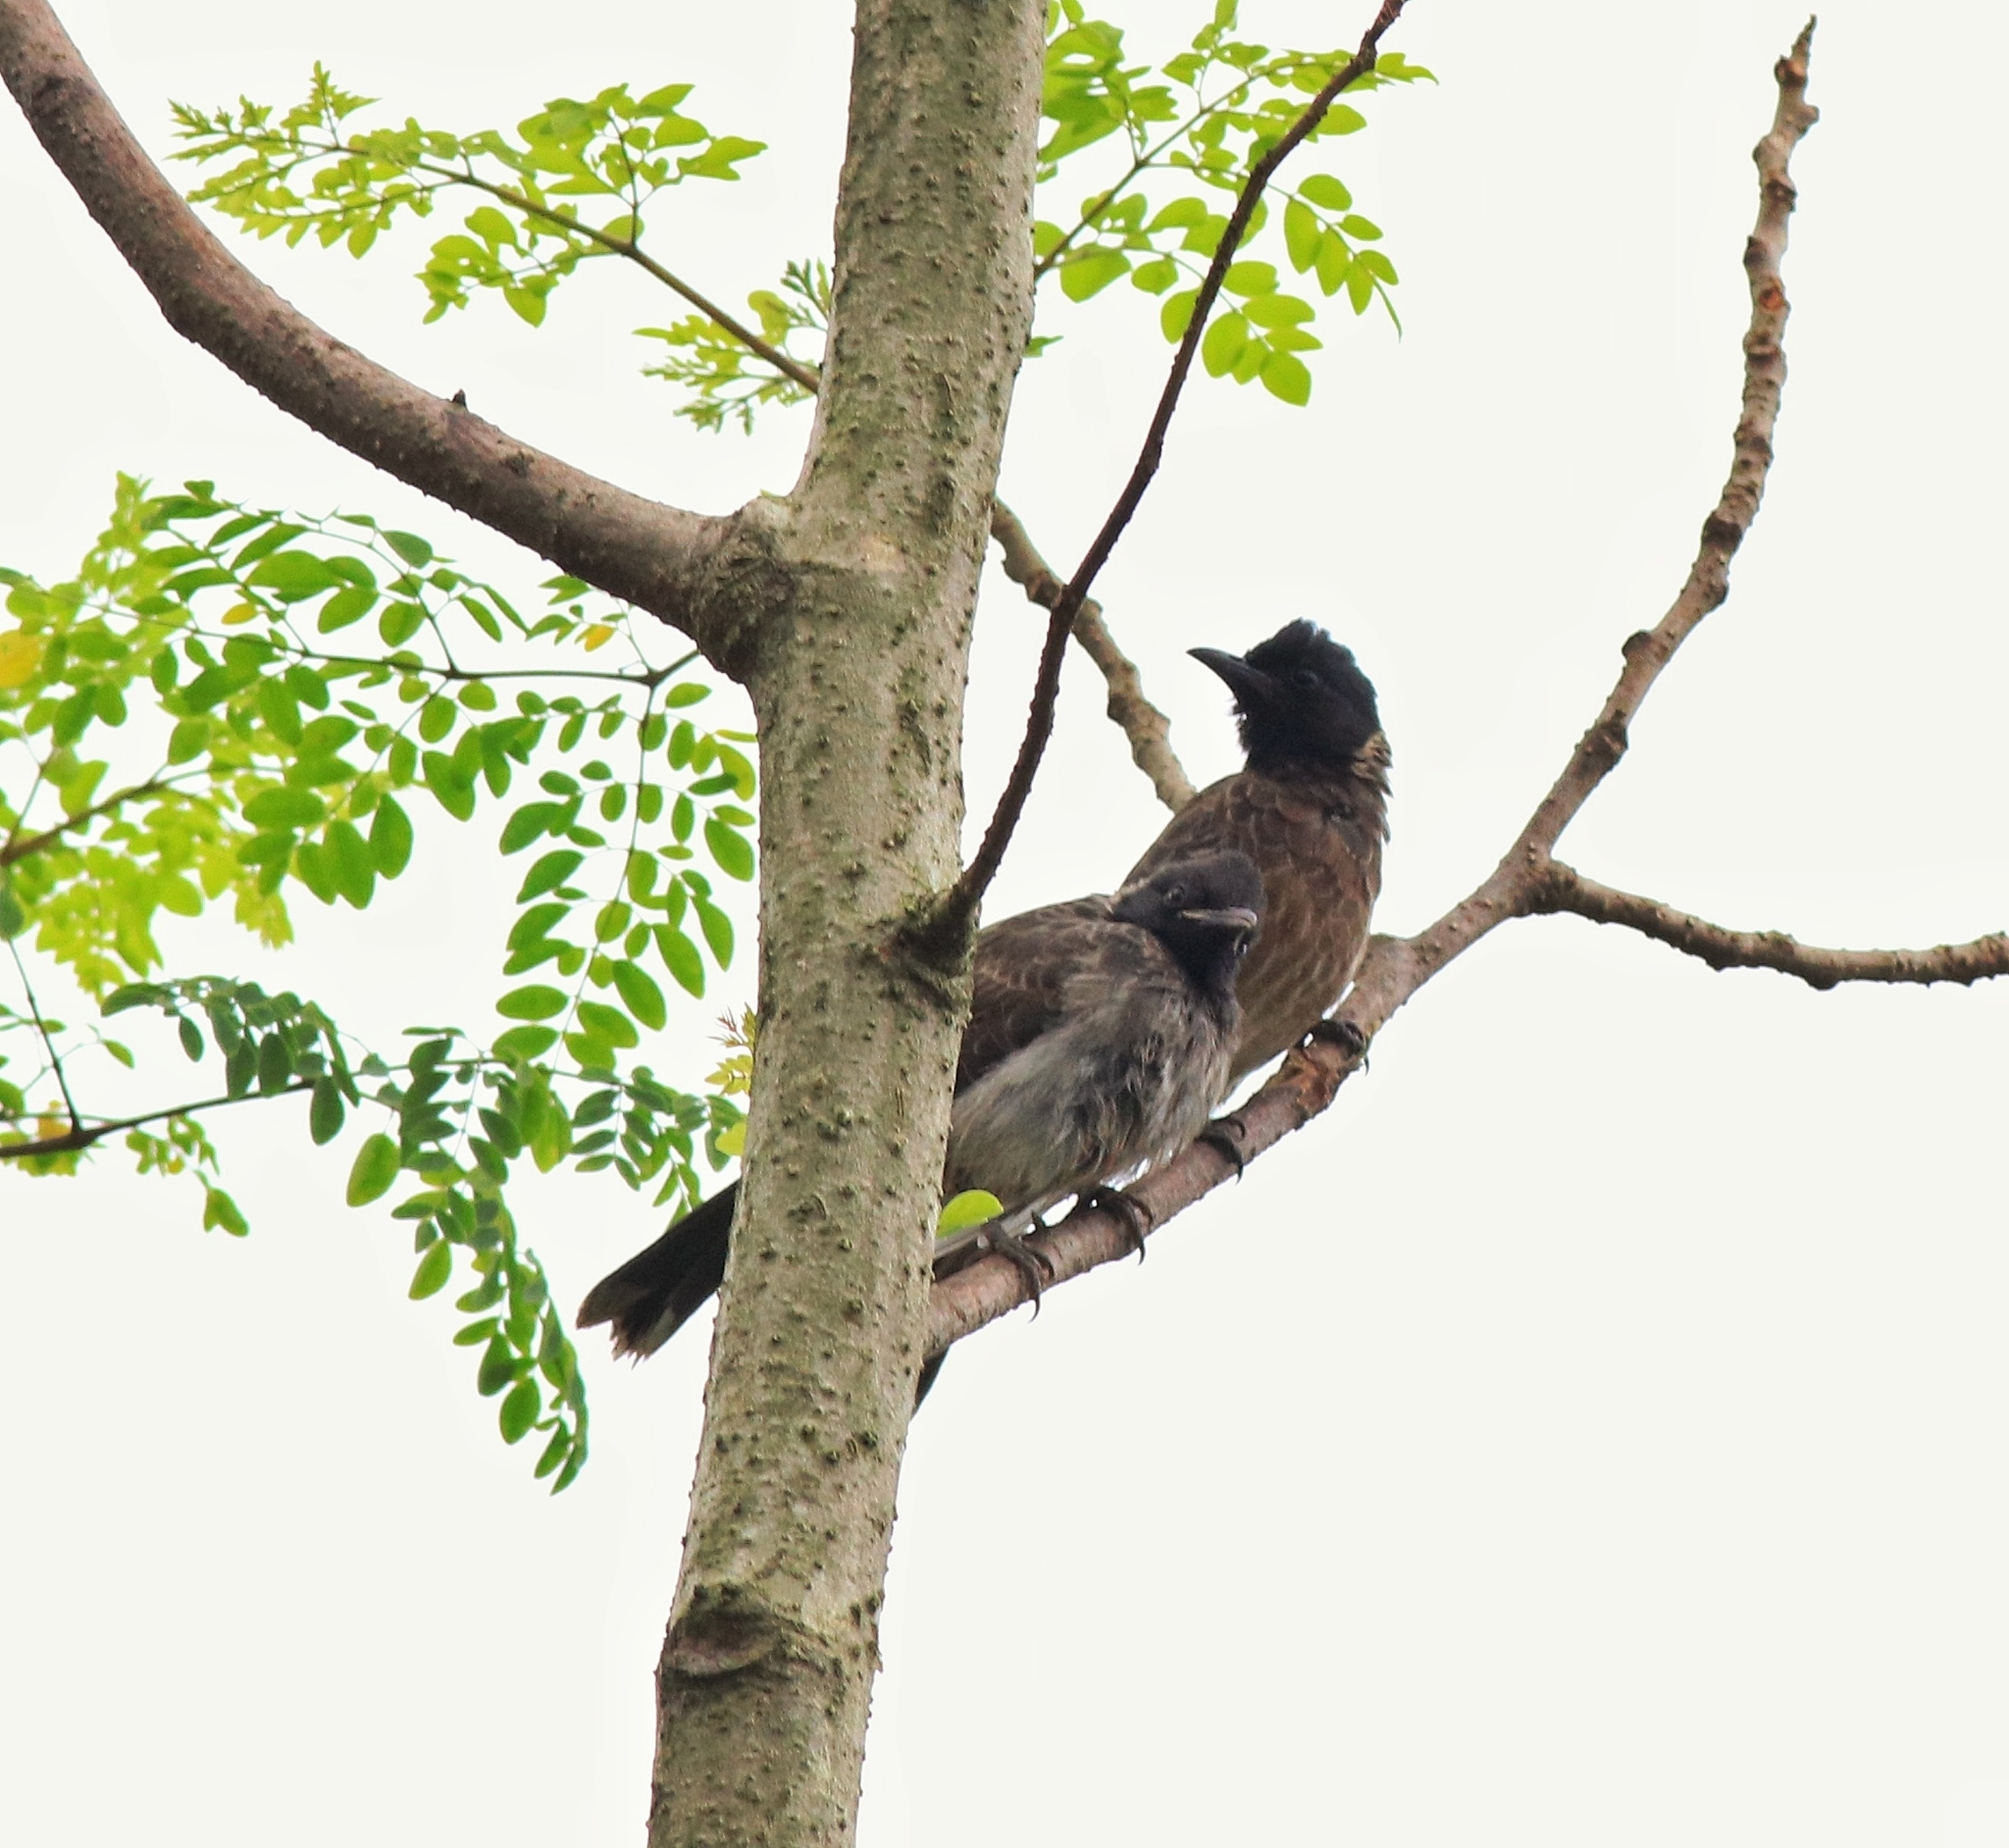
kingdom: Animalia
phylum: Chordata
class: Aves
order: Passeriformes
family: Pycnonotidae
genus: Pycnonotus
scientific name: Pycnonotus cafer
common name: Red-vented bulbul
